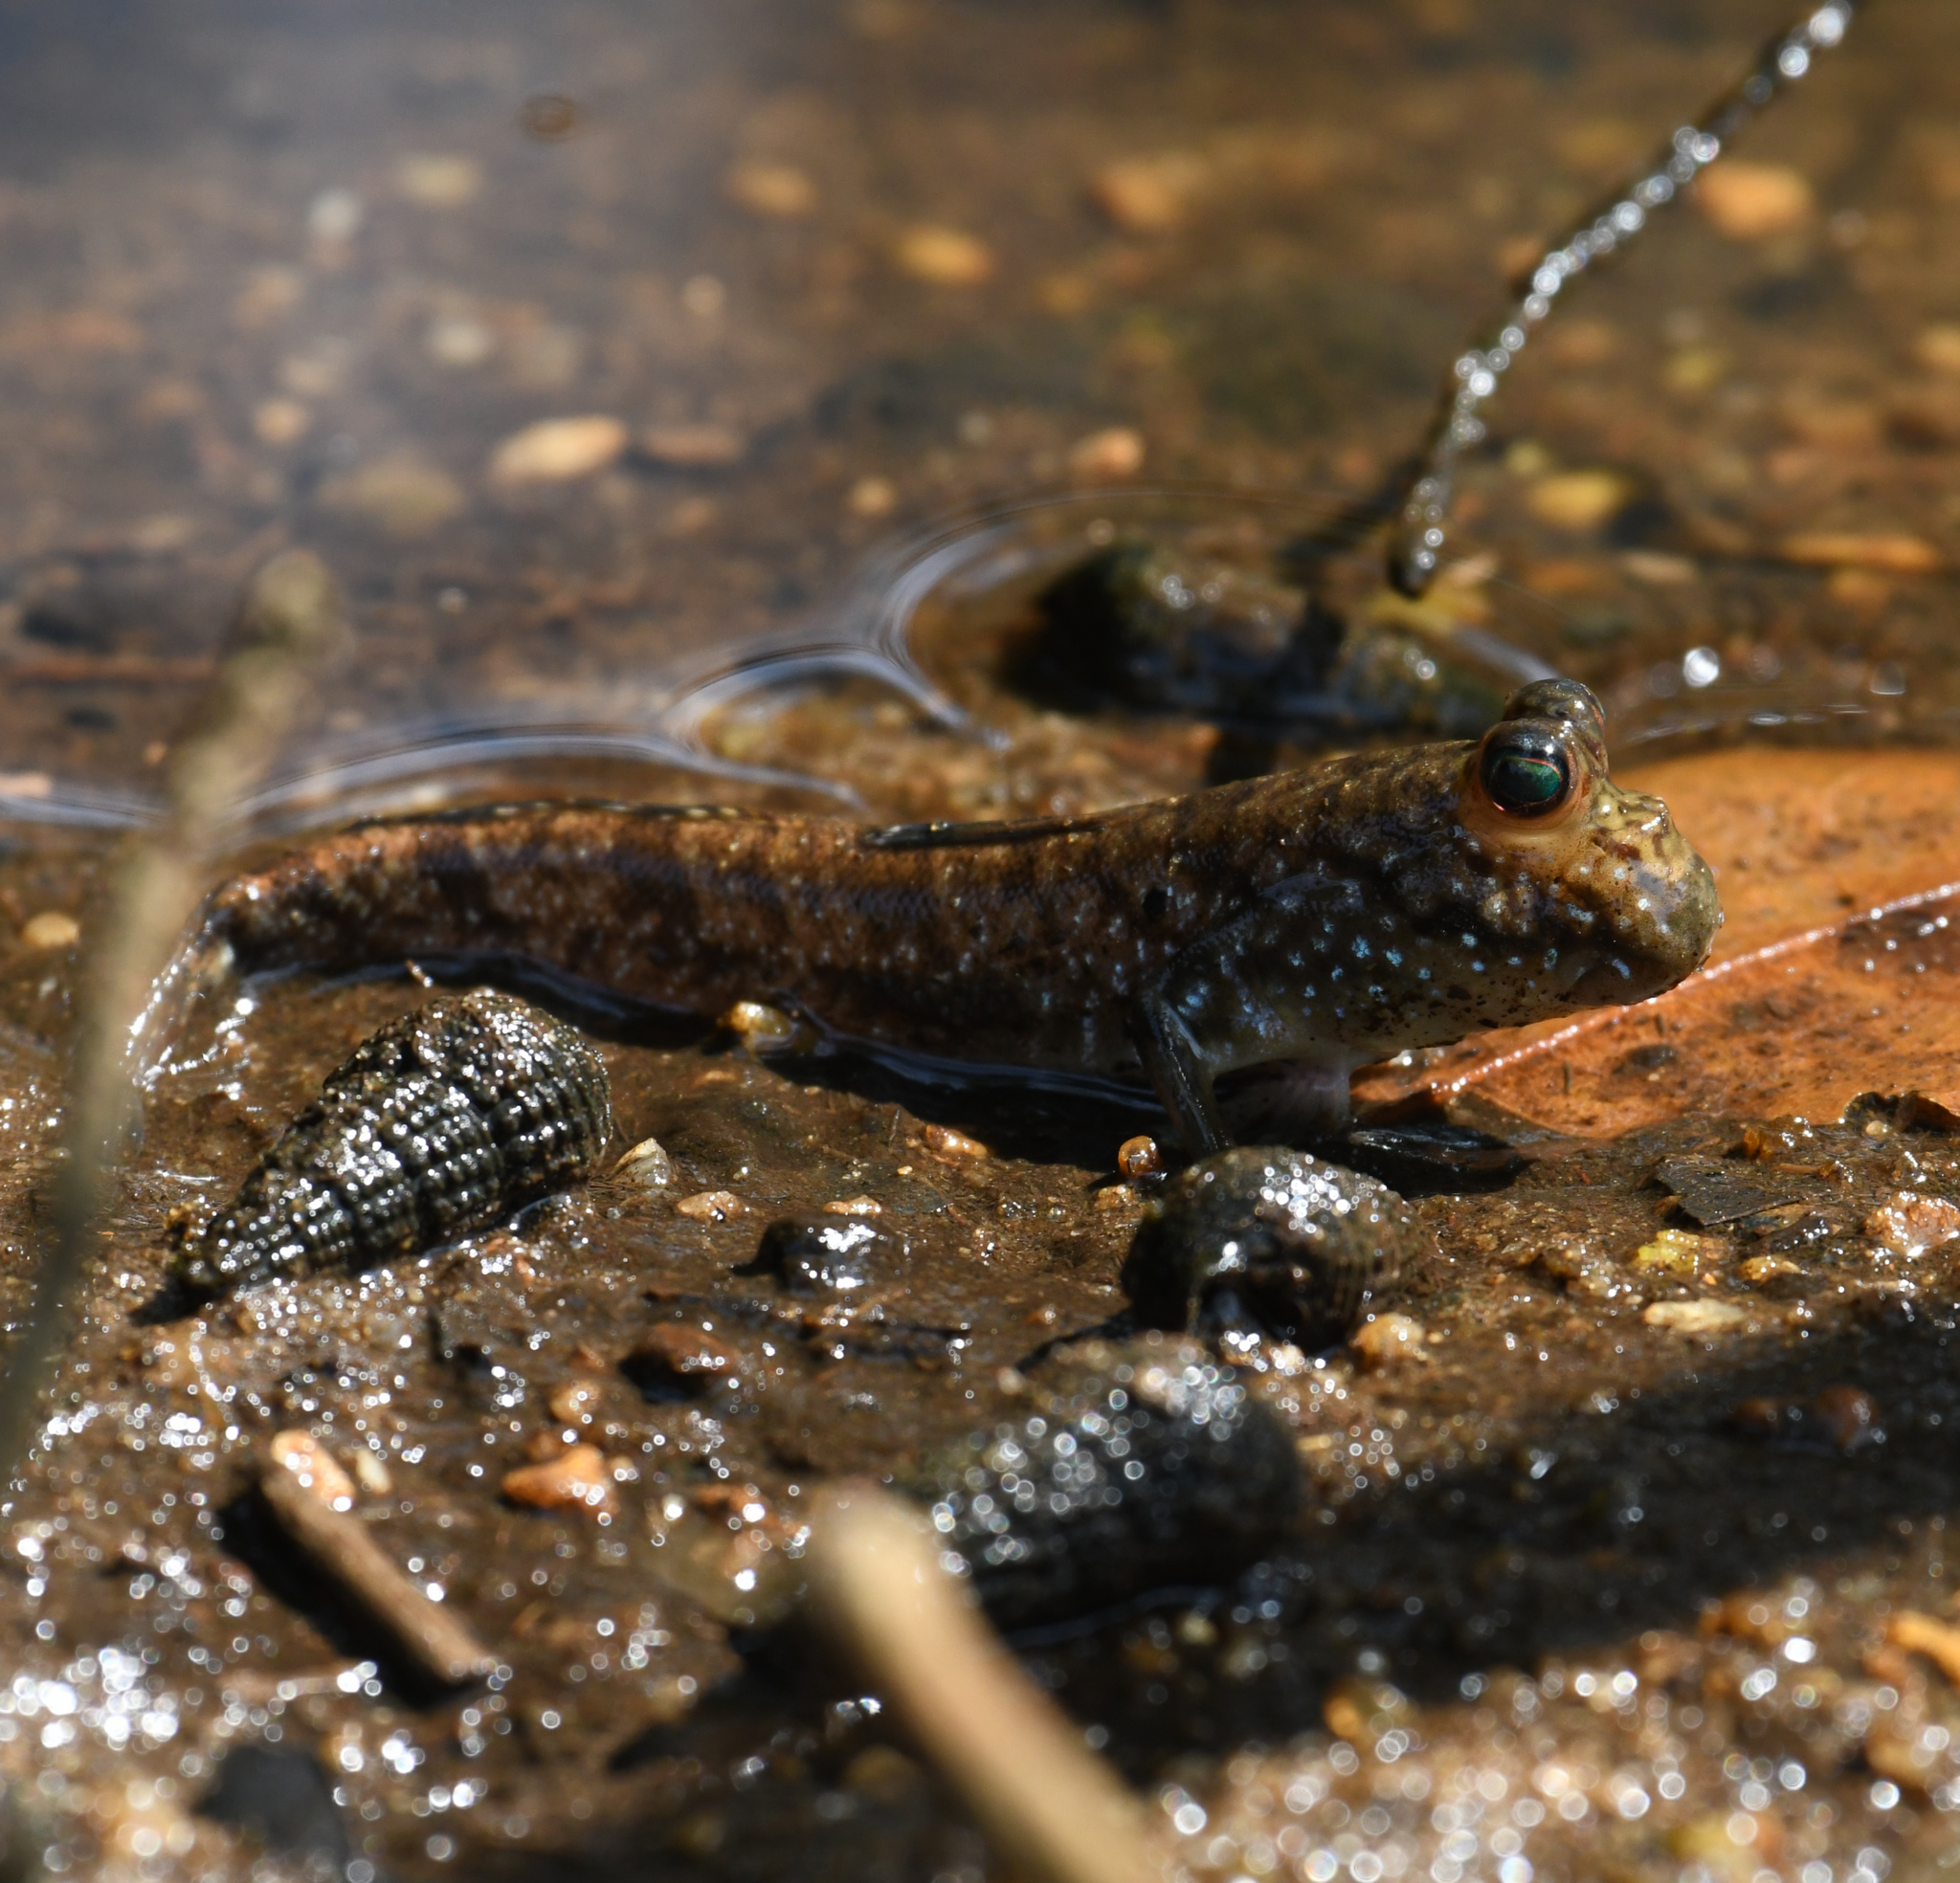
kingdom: Animalia
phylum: Chordata
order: Perciformes
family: Gobiidae
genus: Periophthalmus
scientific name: Periophthalmus barbarus
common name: Atlantic mudskipper
